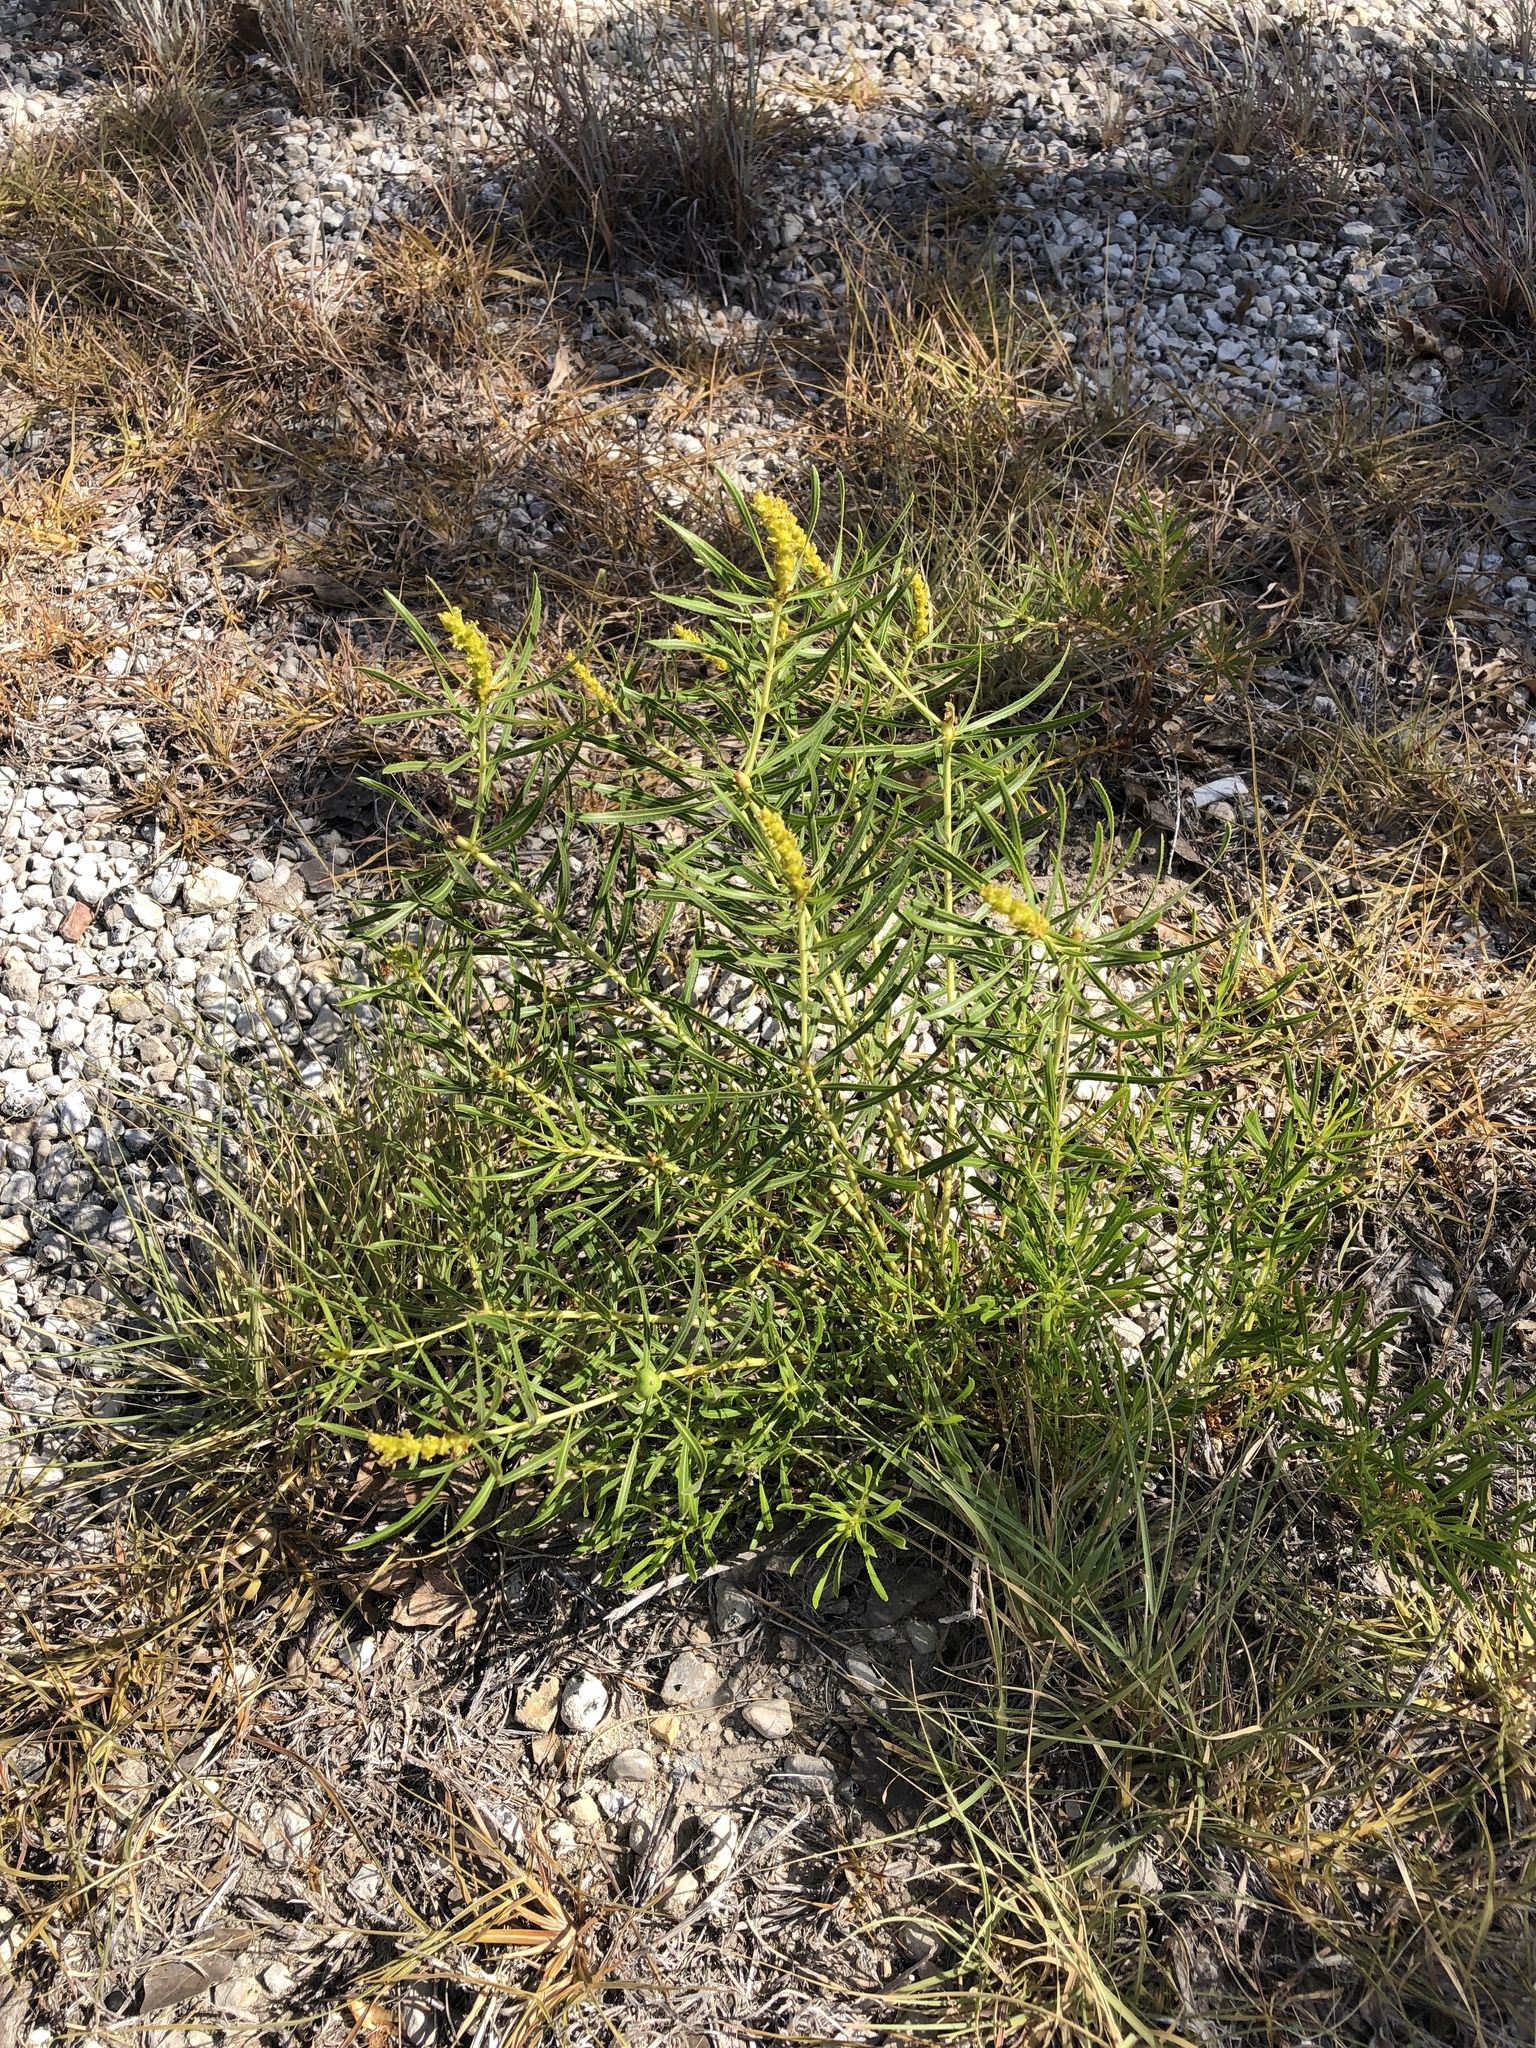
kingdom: Plantae
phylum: Tracheophyta
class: Magnoliopsida
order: Malpighiales
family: Euphorbiaceae
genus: Stillingia
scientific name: Stillingia texana
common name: Texas stillingia
